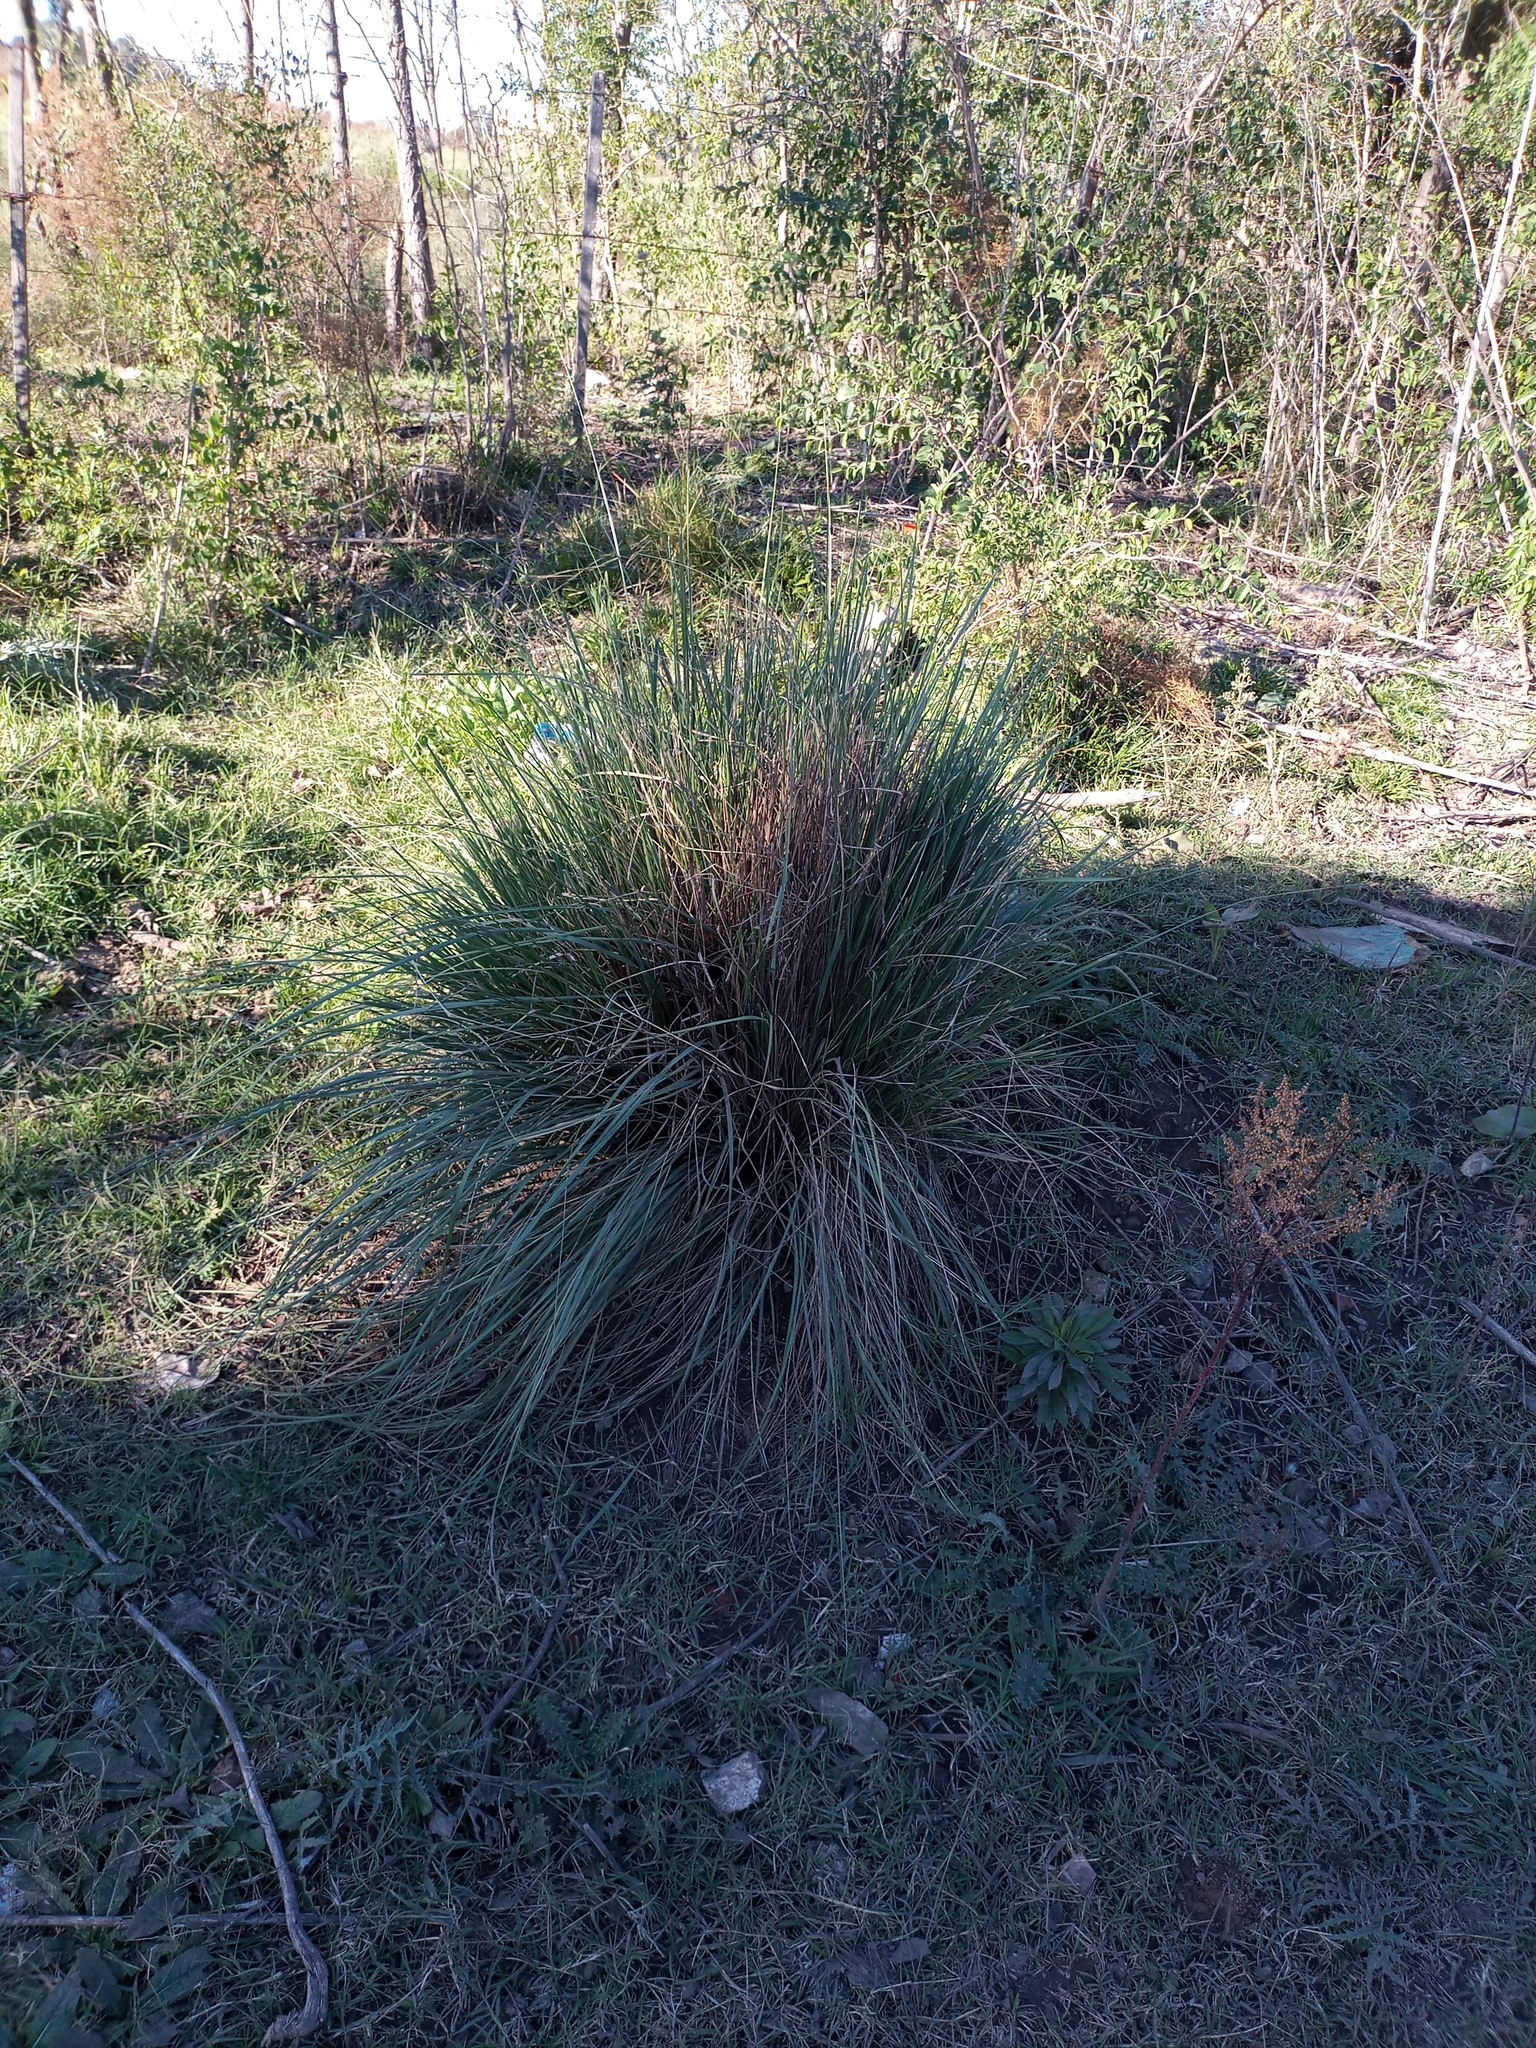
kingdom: Plantae
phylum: Tracheophyta
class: Liliopsida
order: Poales
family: Poaceae
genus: Paspalum
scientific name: Paspalum quadrifarium
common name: Tussock paspalum
